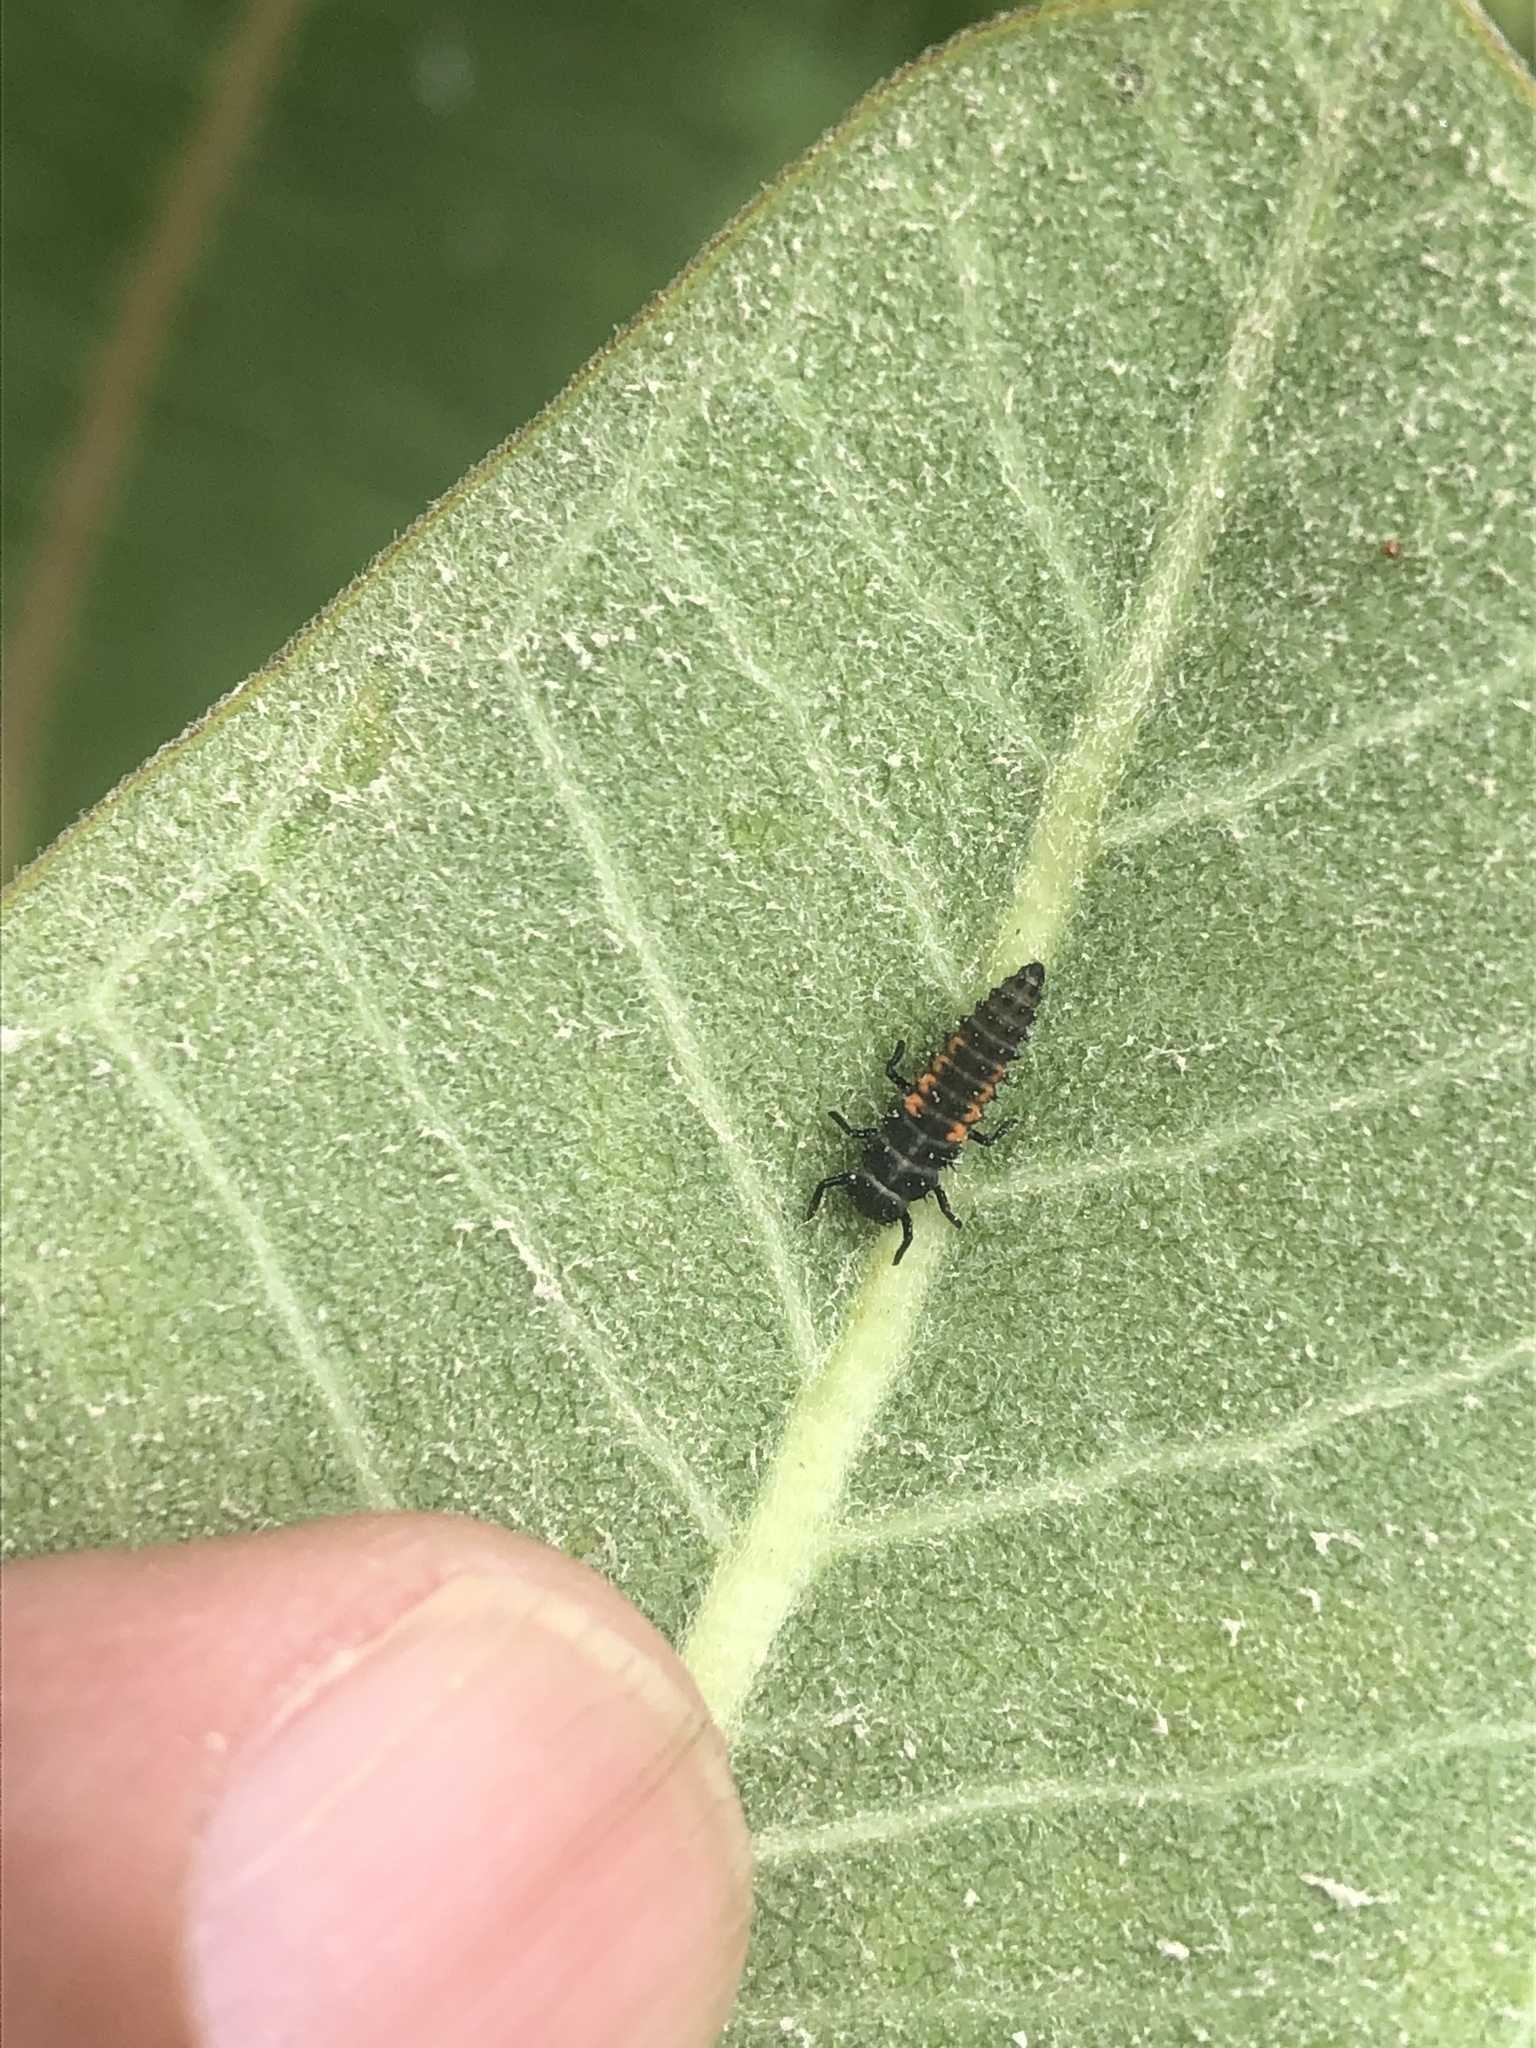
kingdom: Animalia
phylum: Arthropoda
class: Insecta
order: Coleoptera
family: Coccinellidae
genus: Harmonia
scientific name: Harmonia axyridis
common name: Harlequin ladybird
